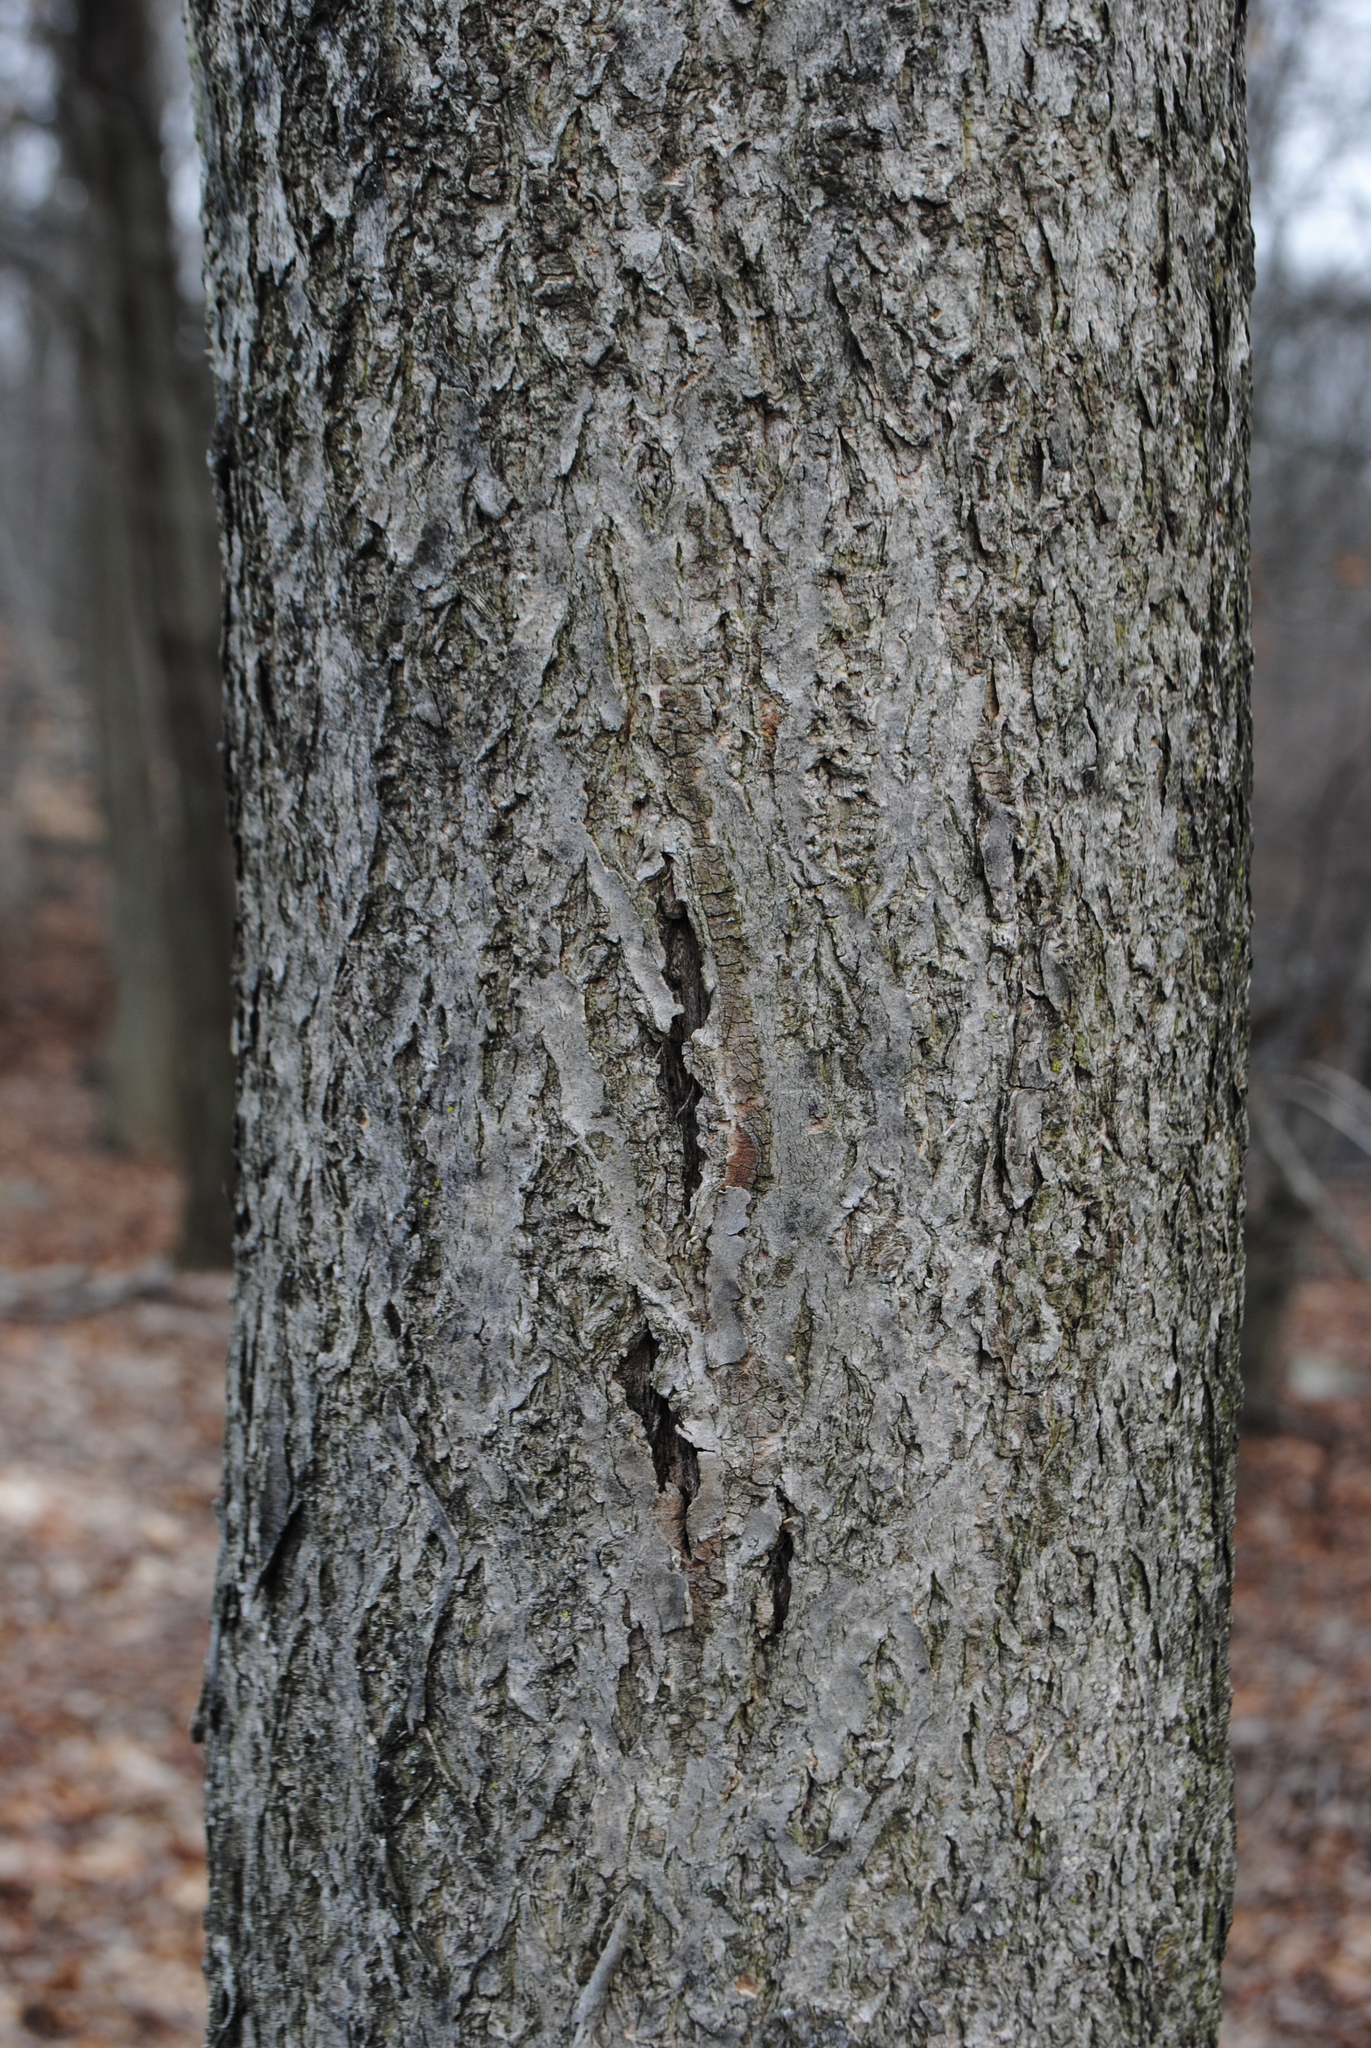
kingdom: Plantae
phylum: Tracheophyta
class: Magnoliopsida
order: Sapindales
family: Rutaceae
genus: Phellodendron
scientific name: Phellodendron amurense
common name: Amur corktree
